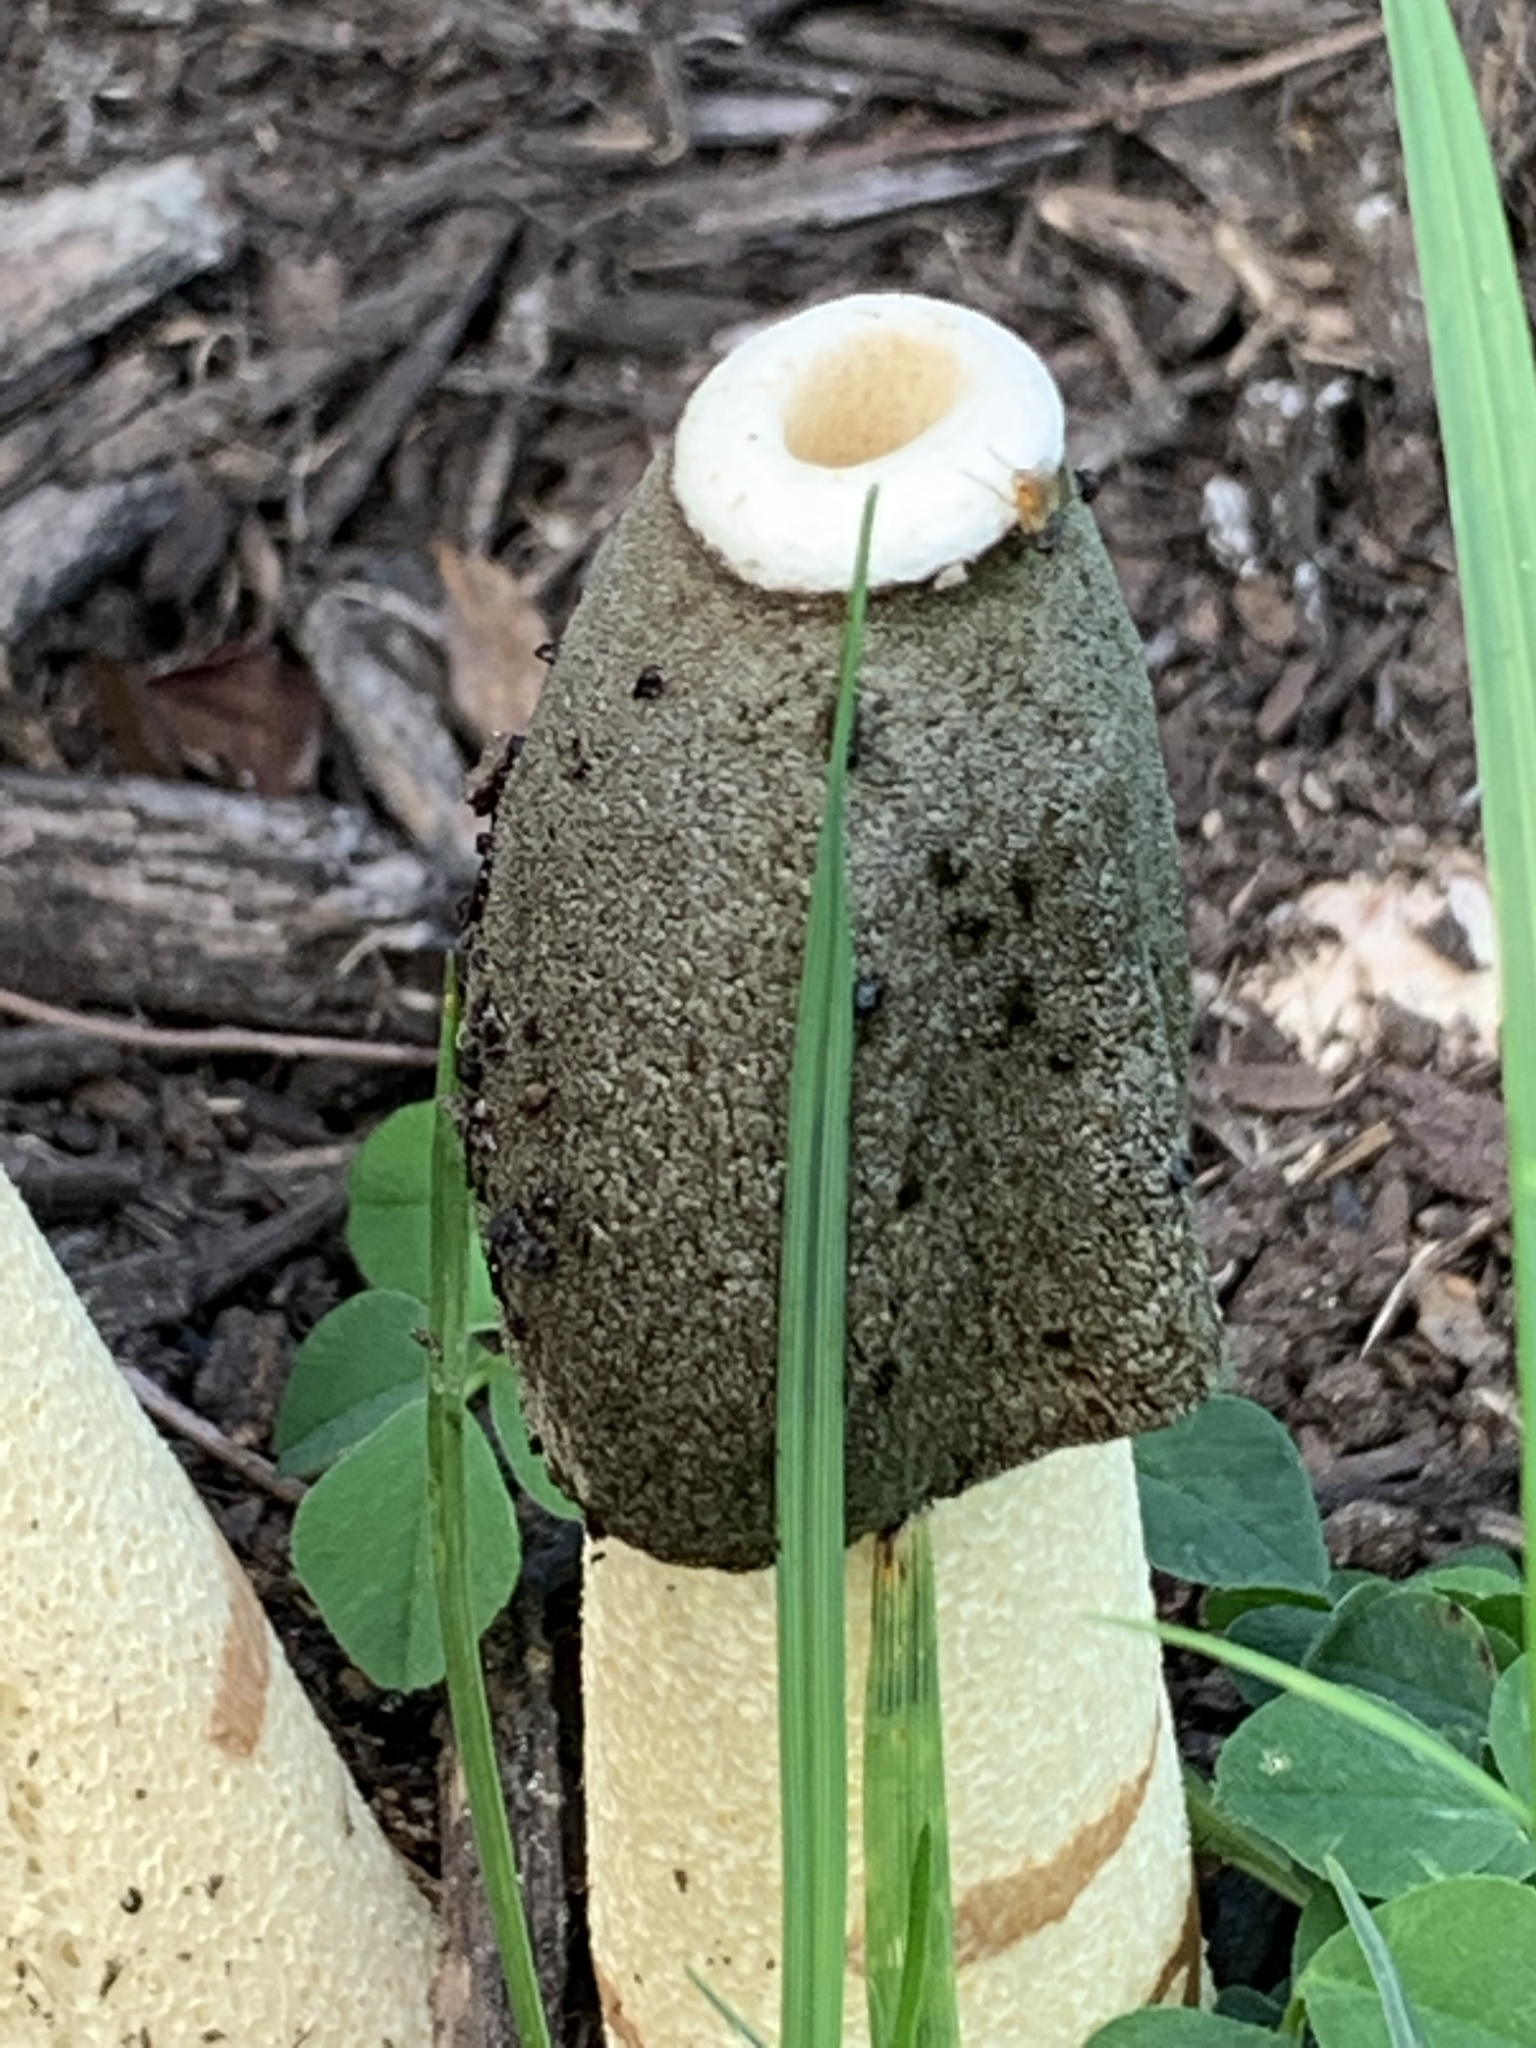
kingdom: Fungi
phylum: Basidiomycota
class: Agaricomycetes
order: Phallales
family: Phallaceae
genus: Phallus
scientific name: Phallus ravenelii
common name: Ravenel's stinkhorn
